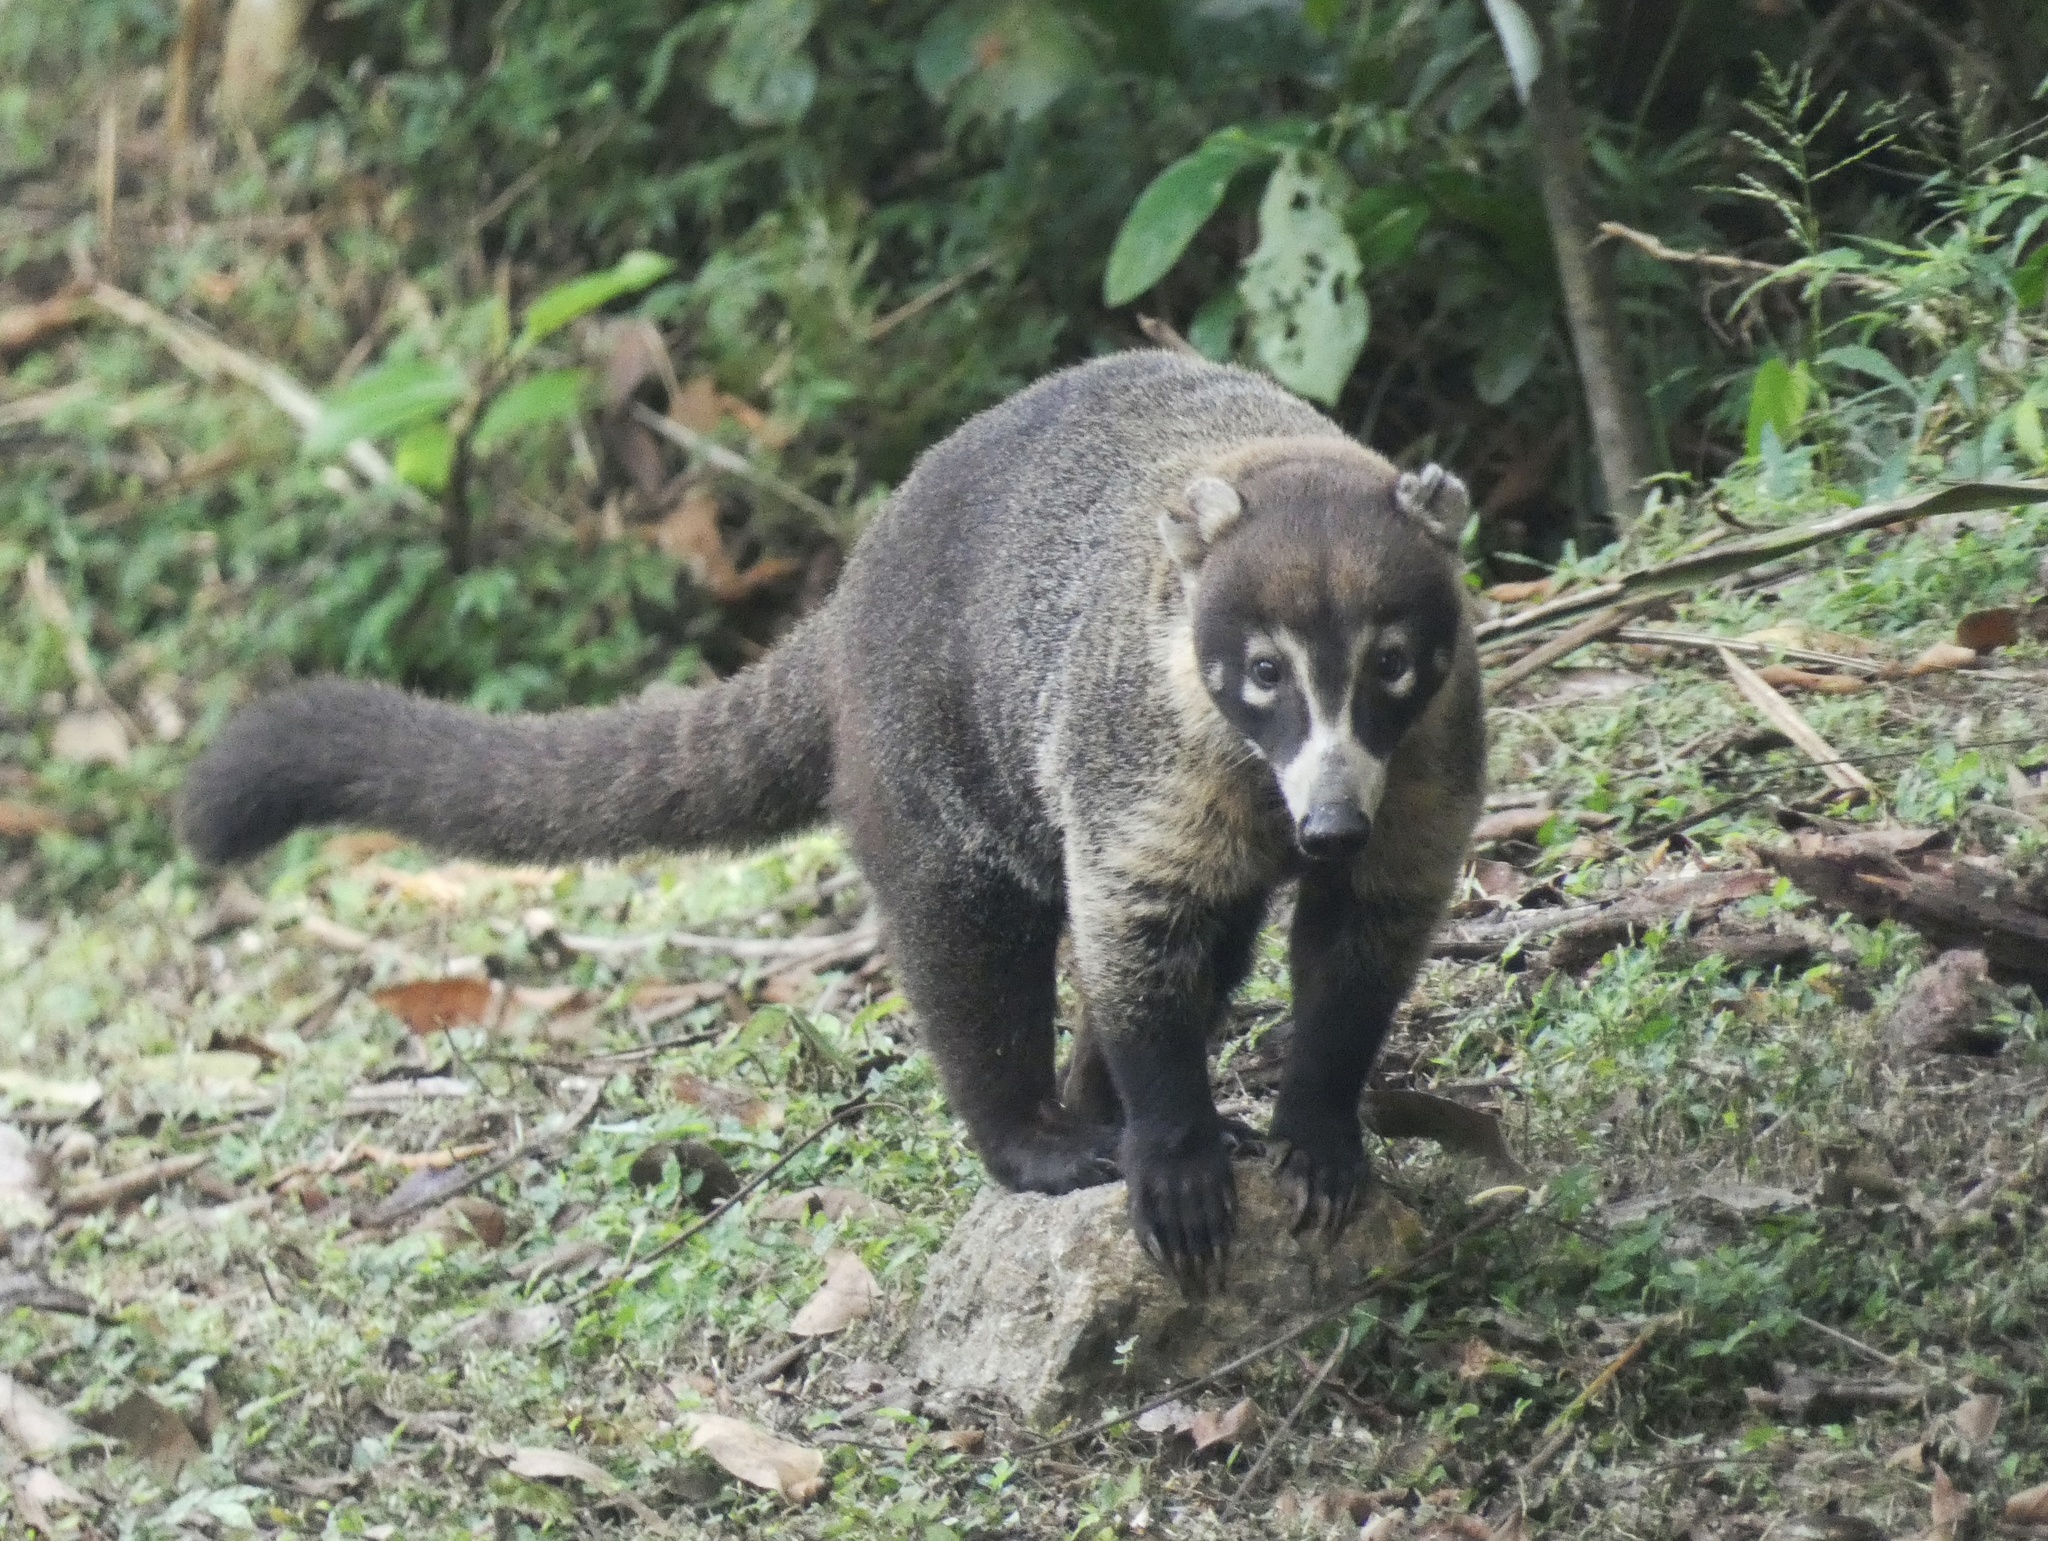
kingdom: Animalia
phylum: Chordata
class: Mammalia
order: Carnivora
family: Procyonidae
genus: Nasua
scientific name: Nasua narica
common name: White-nosed coati
